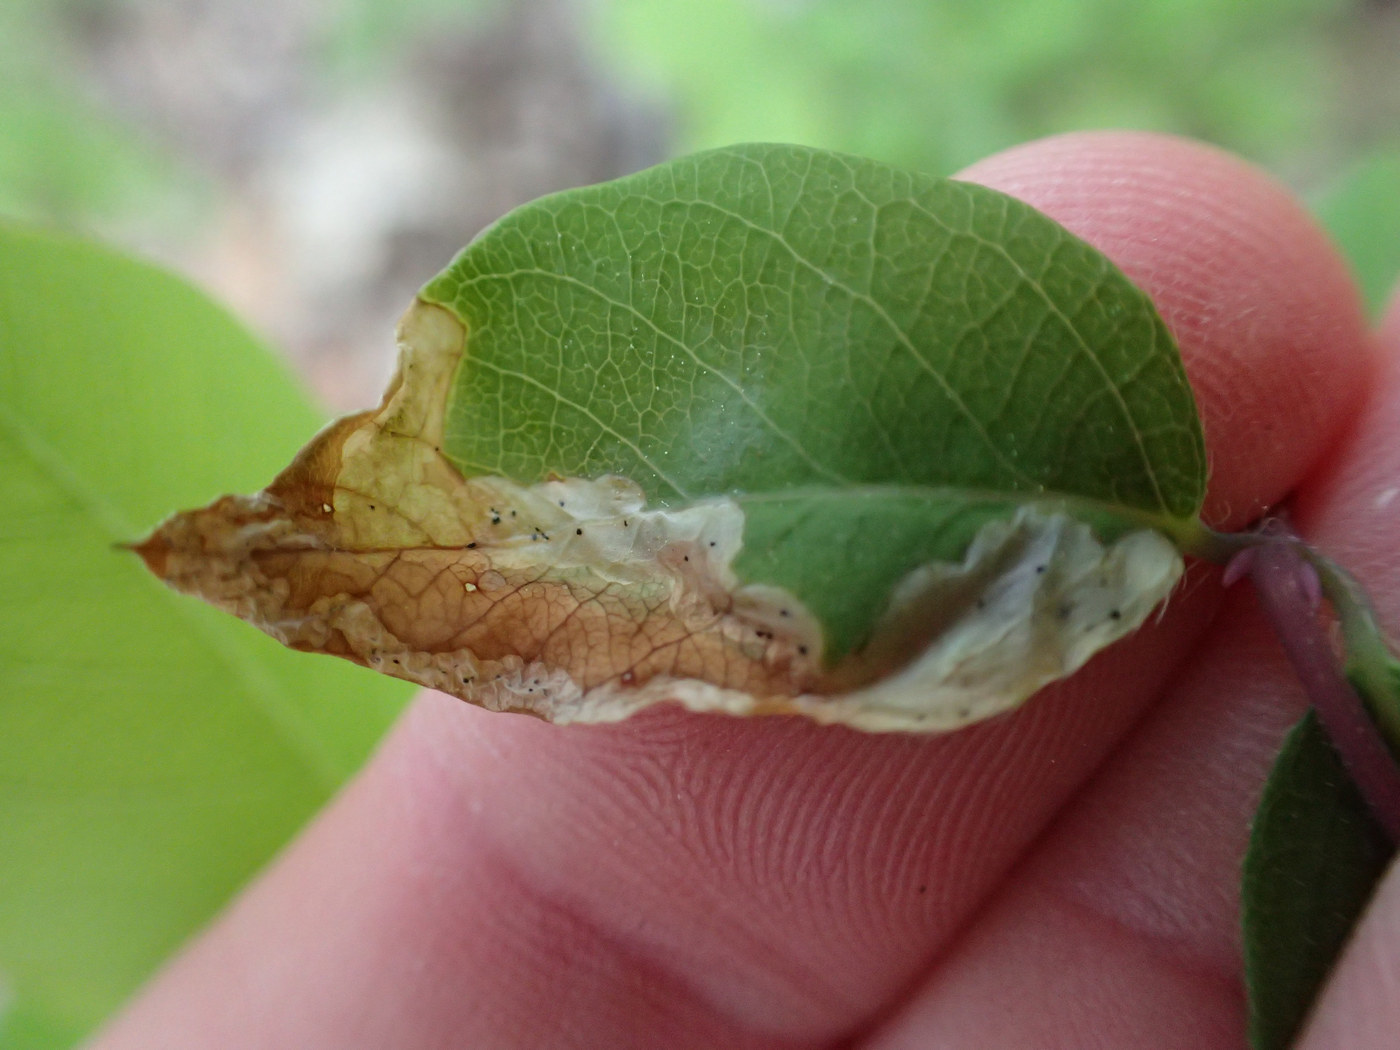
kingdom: Animalia
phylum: Arthropoda
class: Insecta
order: Diptera
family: Agromyzidae
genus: Aulagromyza
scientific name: Aulagromyza cornigera
